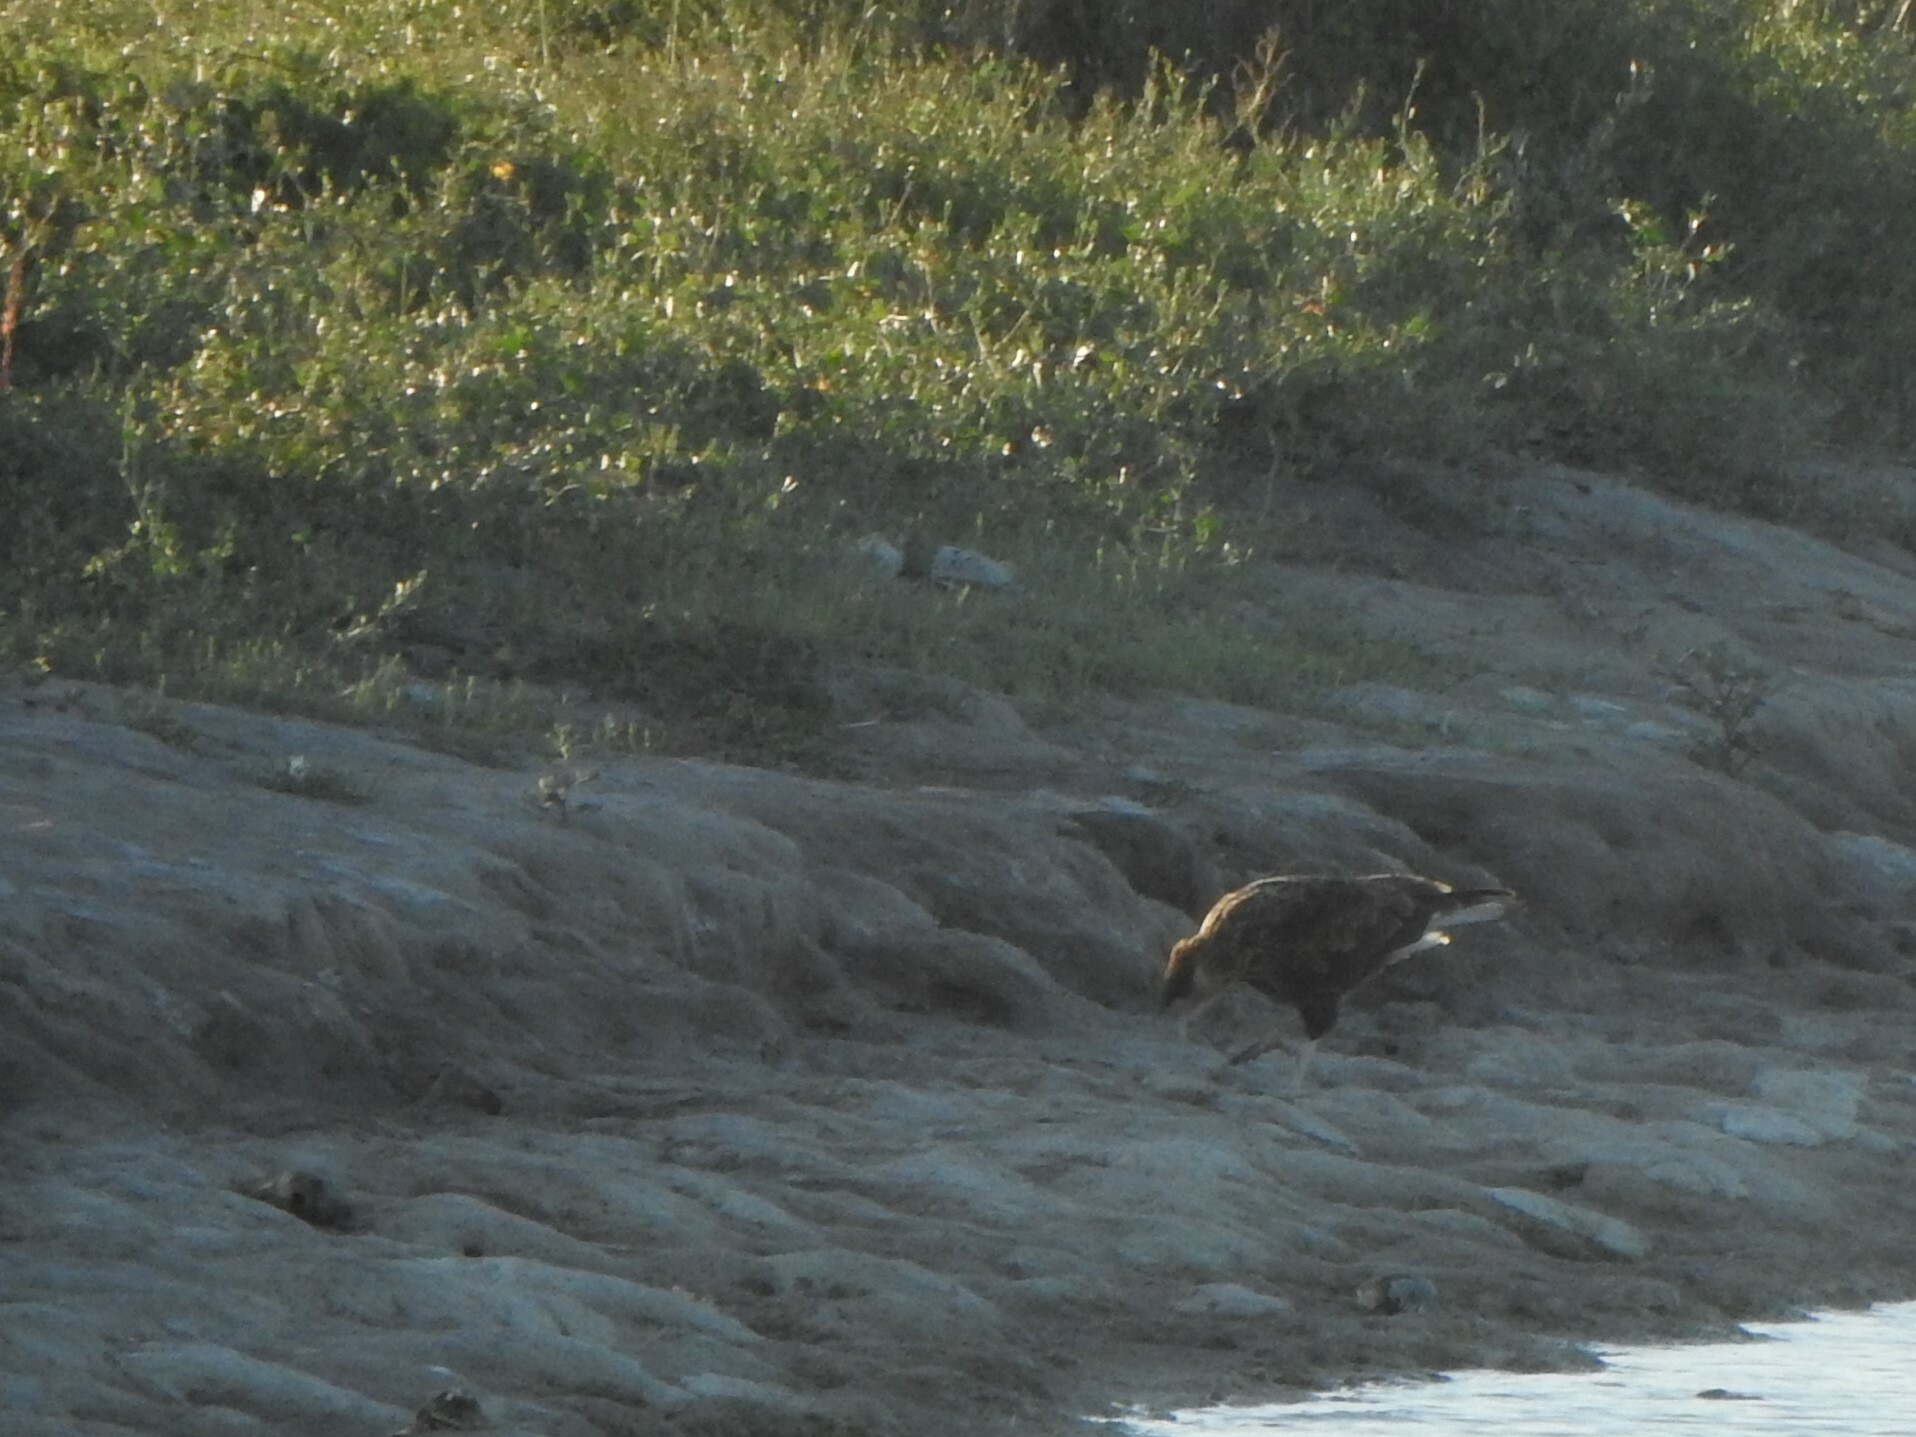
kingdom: Animalia
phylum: Chordata
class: Aves
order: Falconiformes
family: Falconidae
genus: Caracara
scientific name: Caracara plancus
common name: Southern caracara
